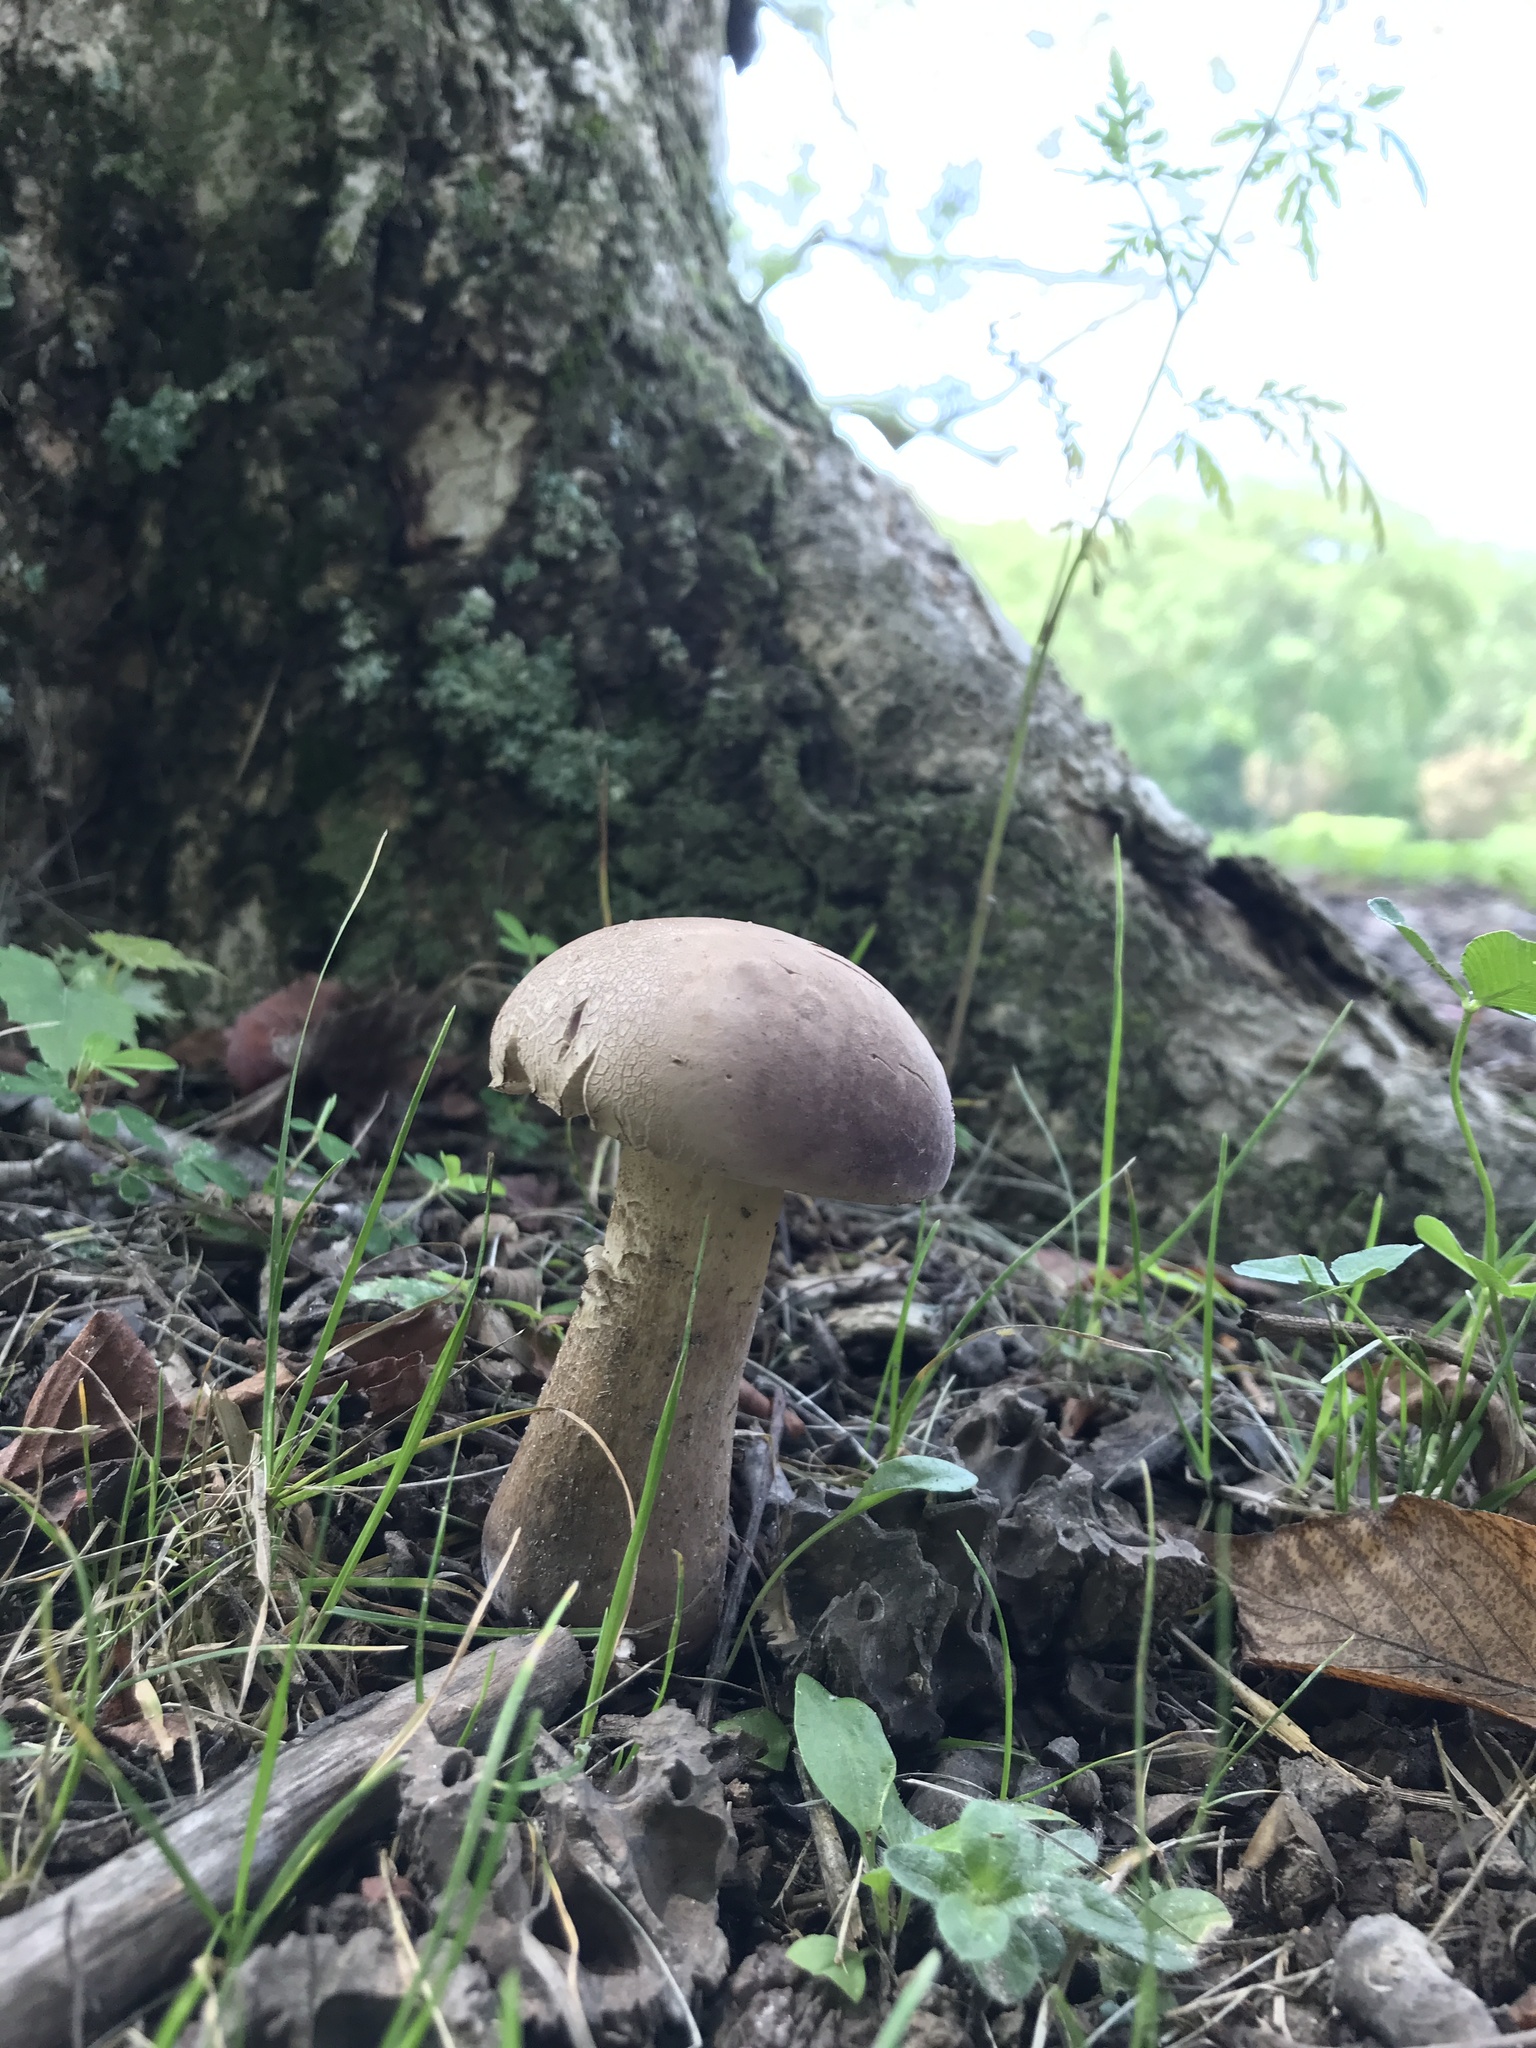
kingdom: Fungi
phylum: Basidiomycota
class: Agaricomycetes
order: Boletales
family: Boletaceae
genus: Tylopilus
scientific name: Tylopilus rubrobrunneus
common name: Reddish brown bitter bolete
